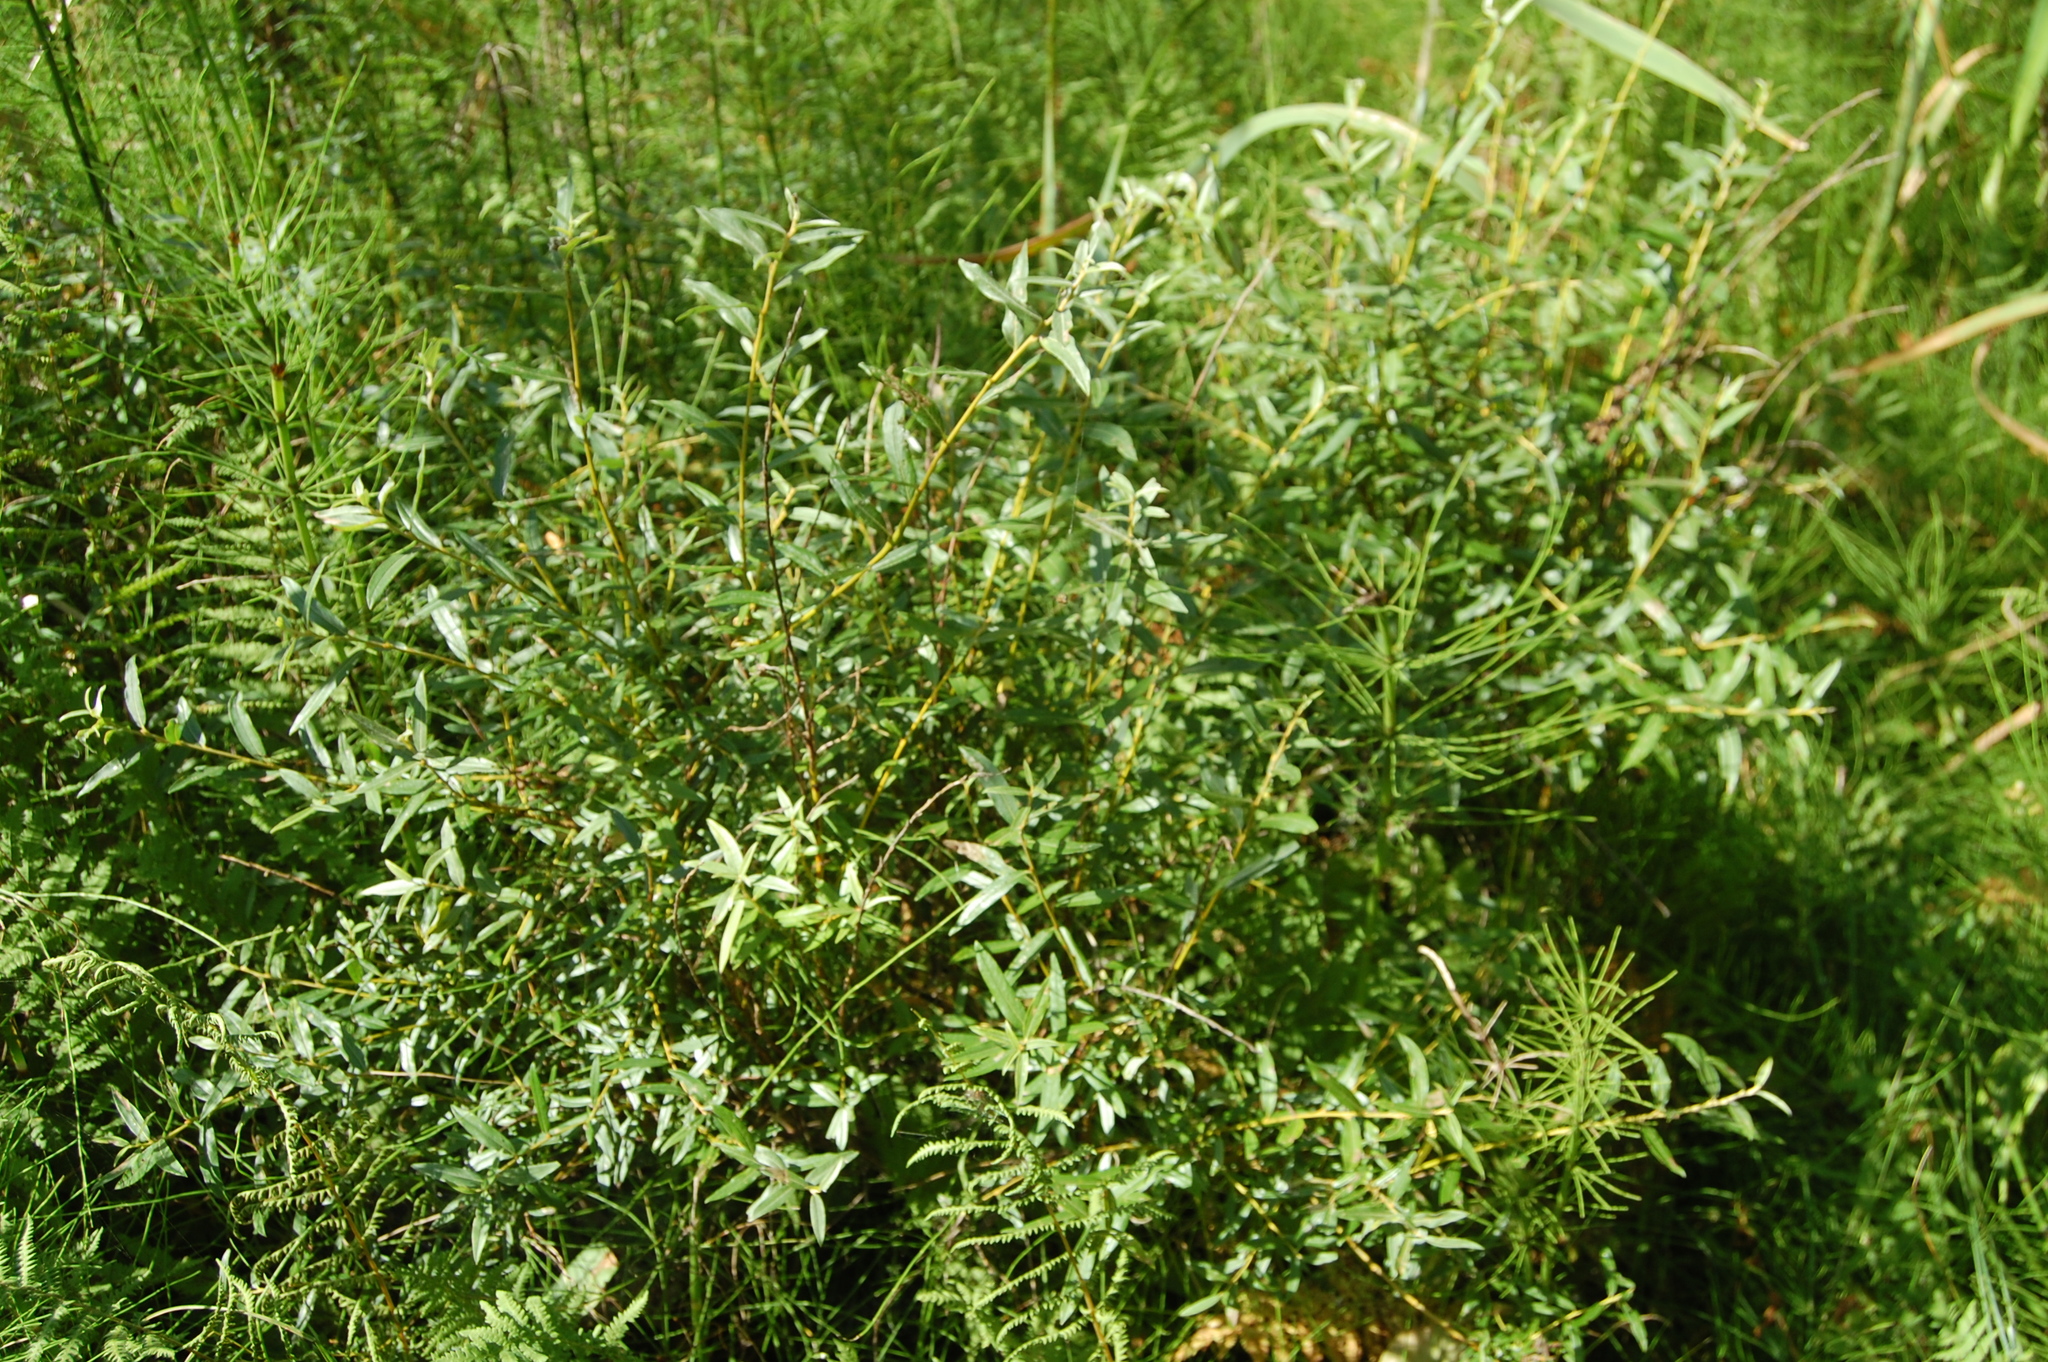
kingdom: Plantae
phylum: Tracheophyta
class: Magnoliopsida
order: Malpighiales
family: Salicaceae
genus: Salix
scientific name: Salix rosmarinifolia
